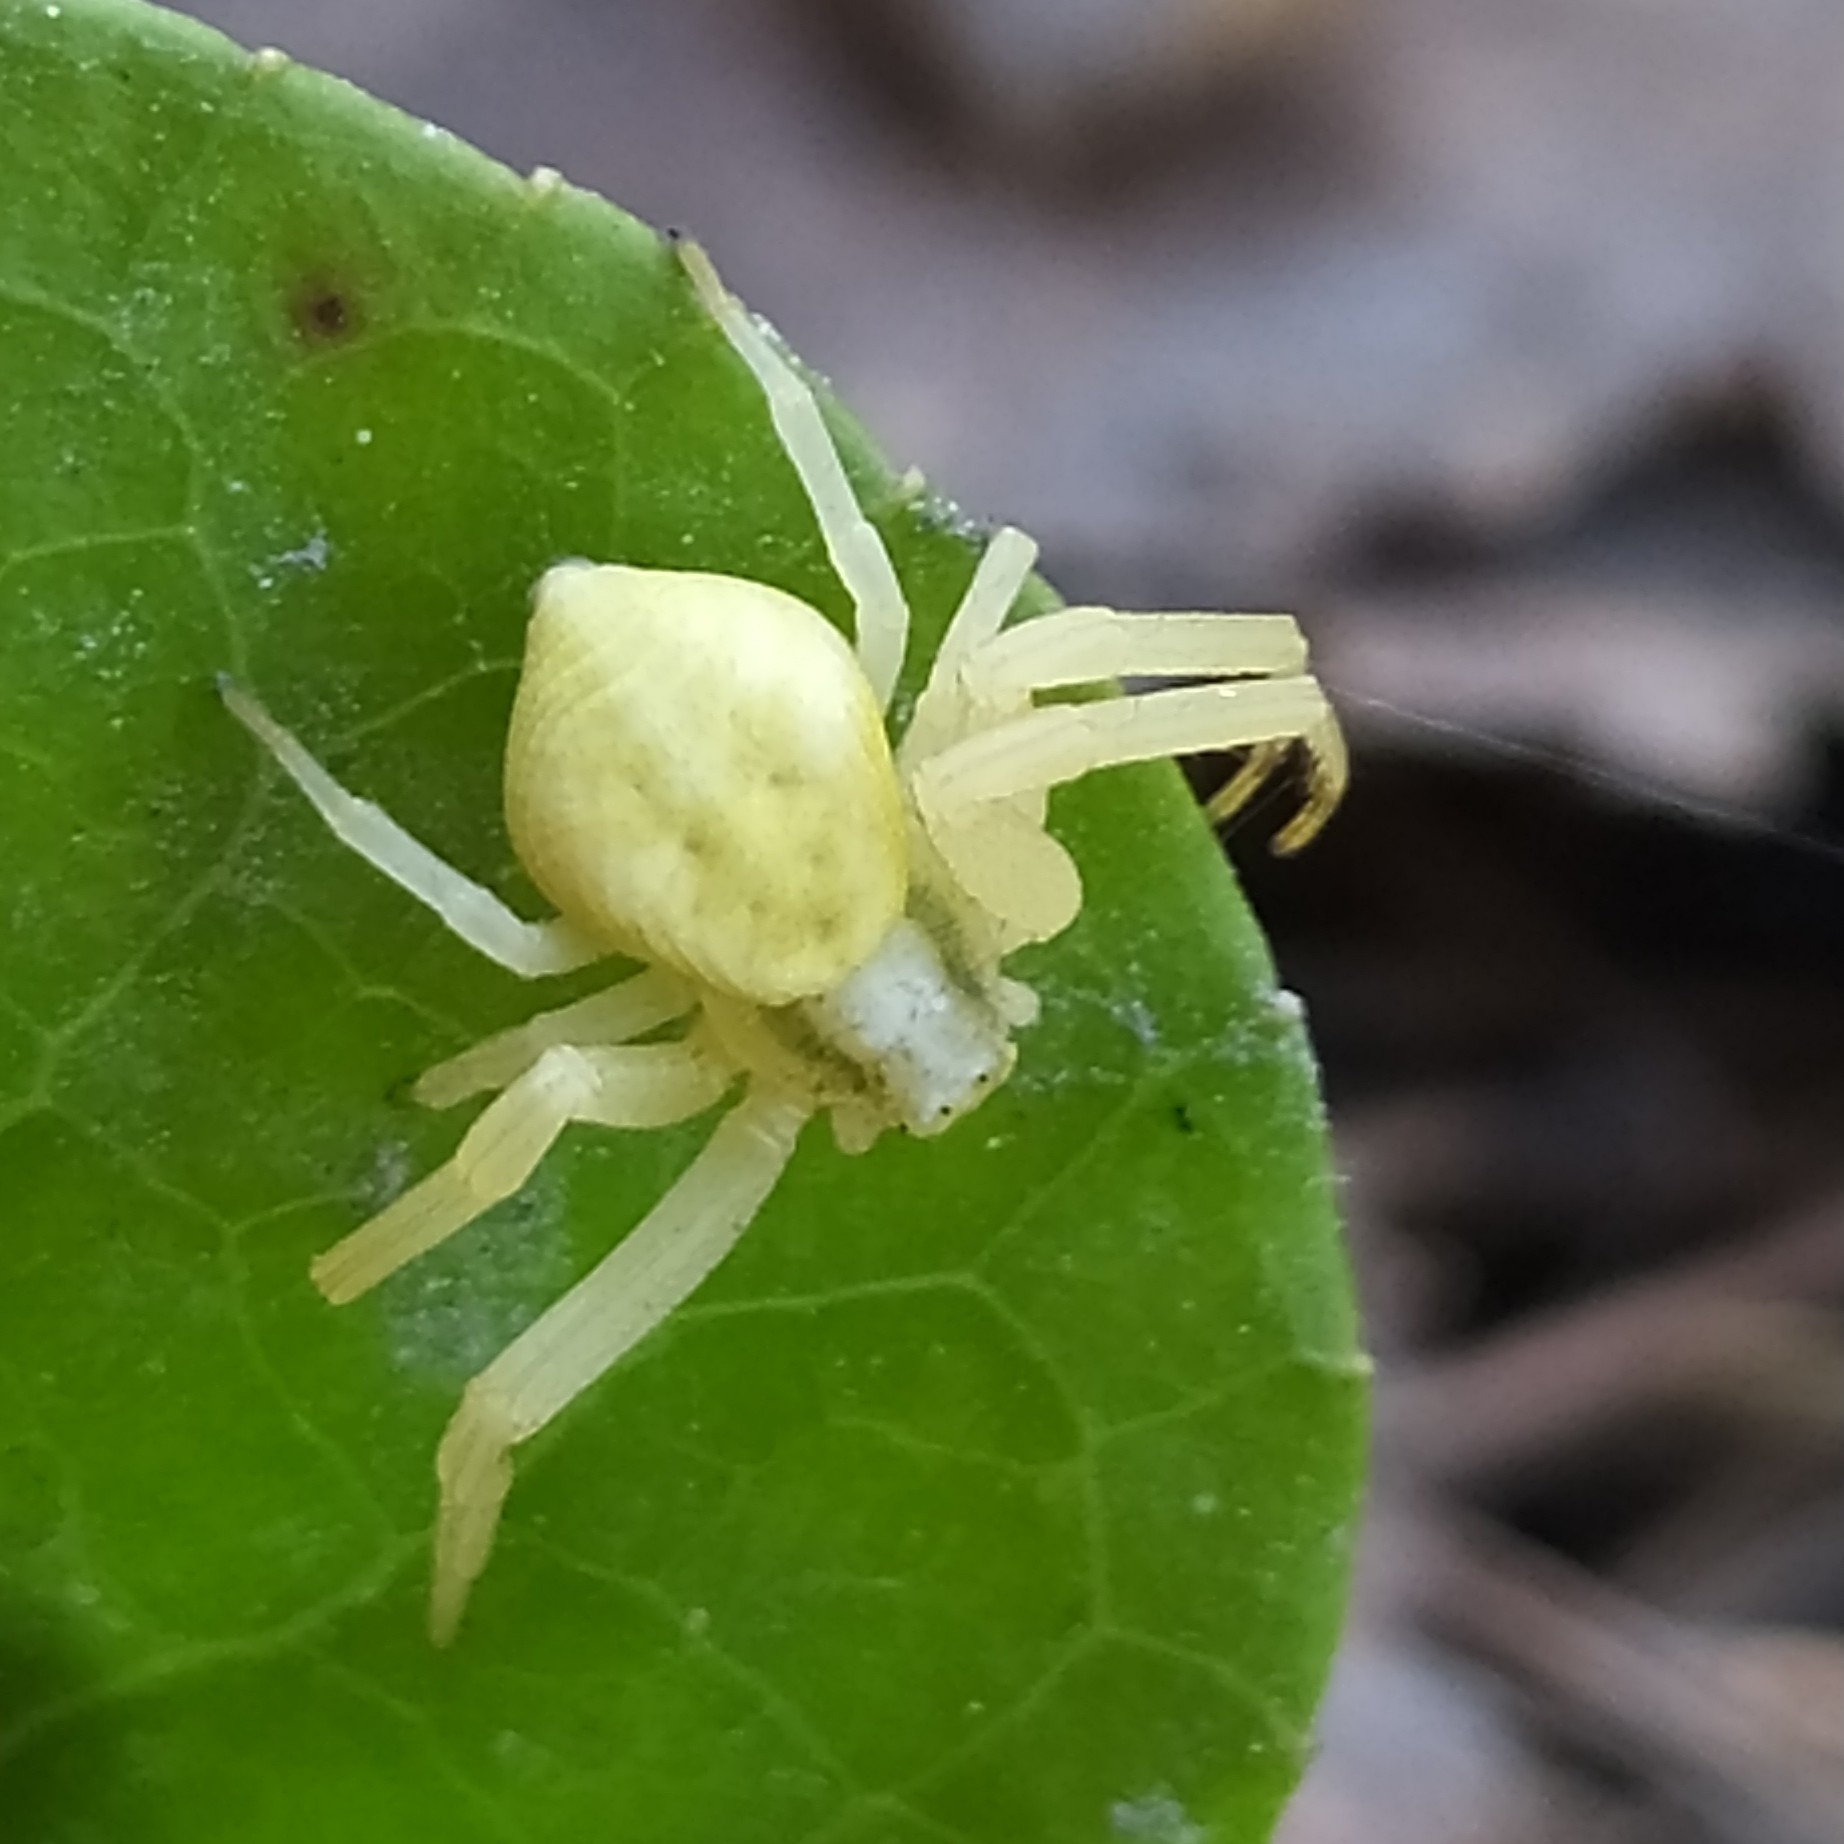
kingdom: Animalia
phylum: Arthropoda
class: Arachnida
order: Araneae
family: Thomisidae
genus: Misumena
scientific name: Misumena vatia
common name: Goldenrod crab spider
